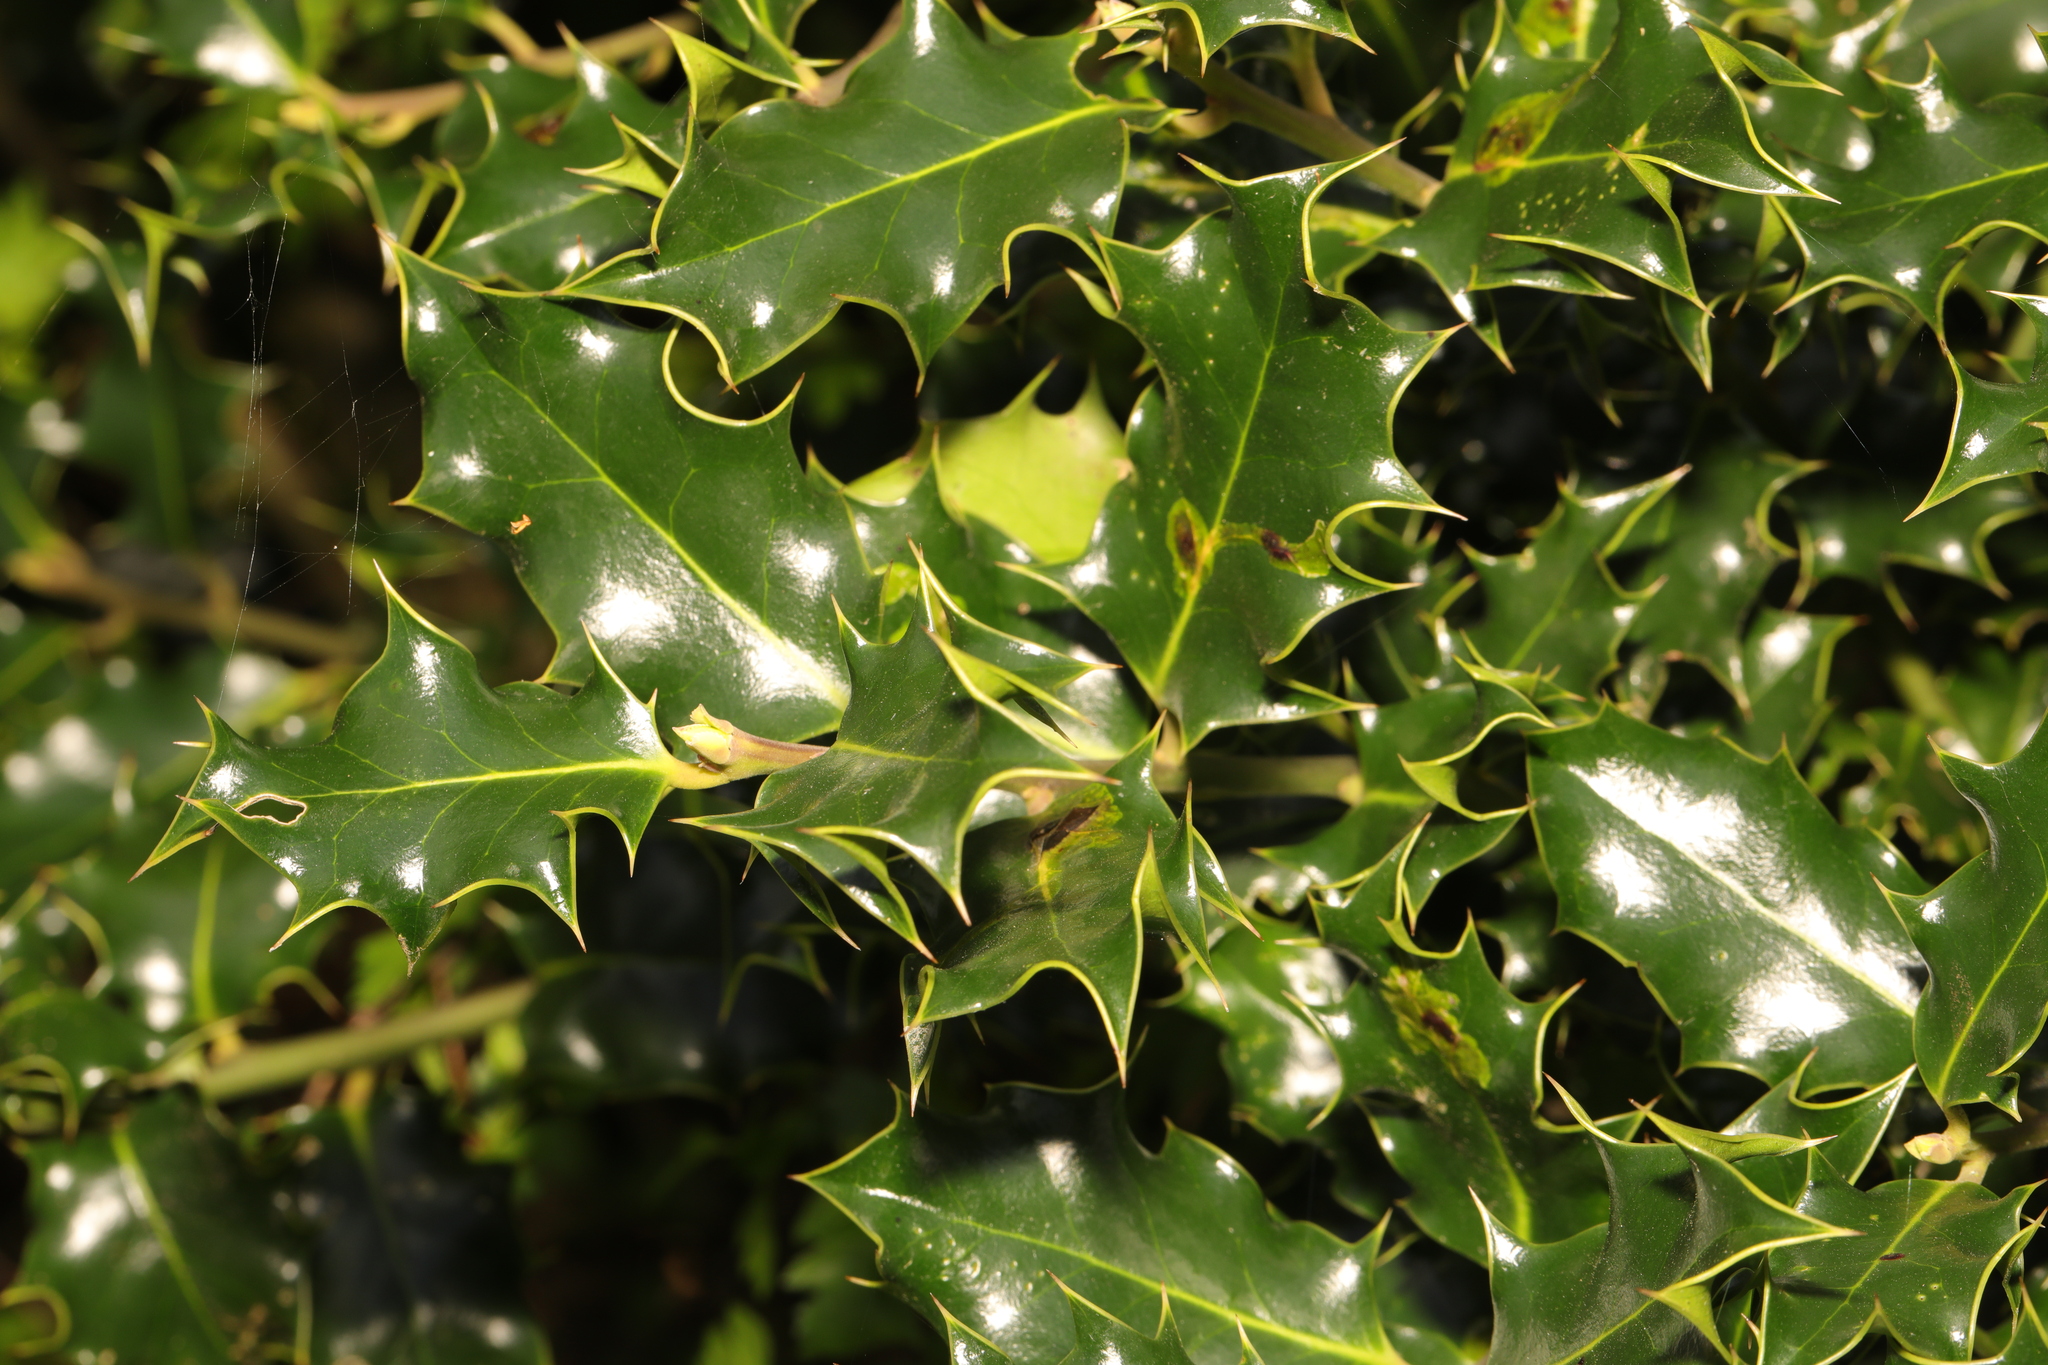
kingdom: Plantae
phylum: Tracheophyta
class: Magnoliopsida
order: Aquifoliales
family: Aquifoliaceae
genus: Ilex
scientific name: Ilex aquifolium
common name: English holly
